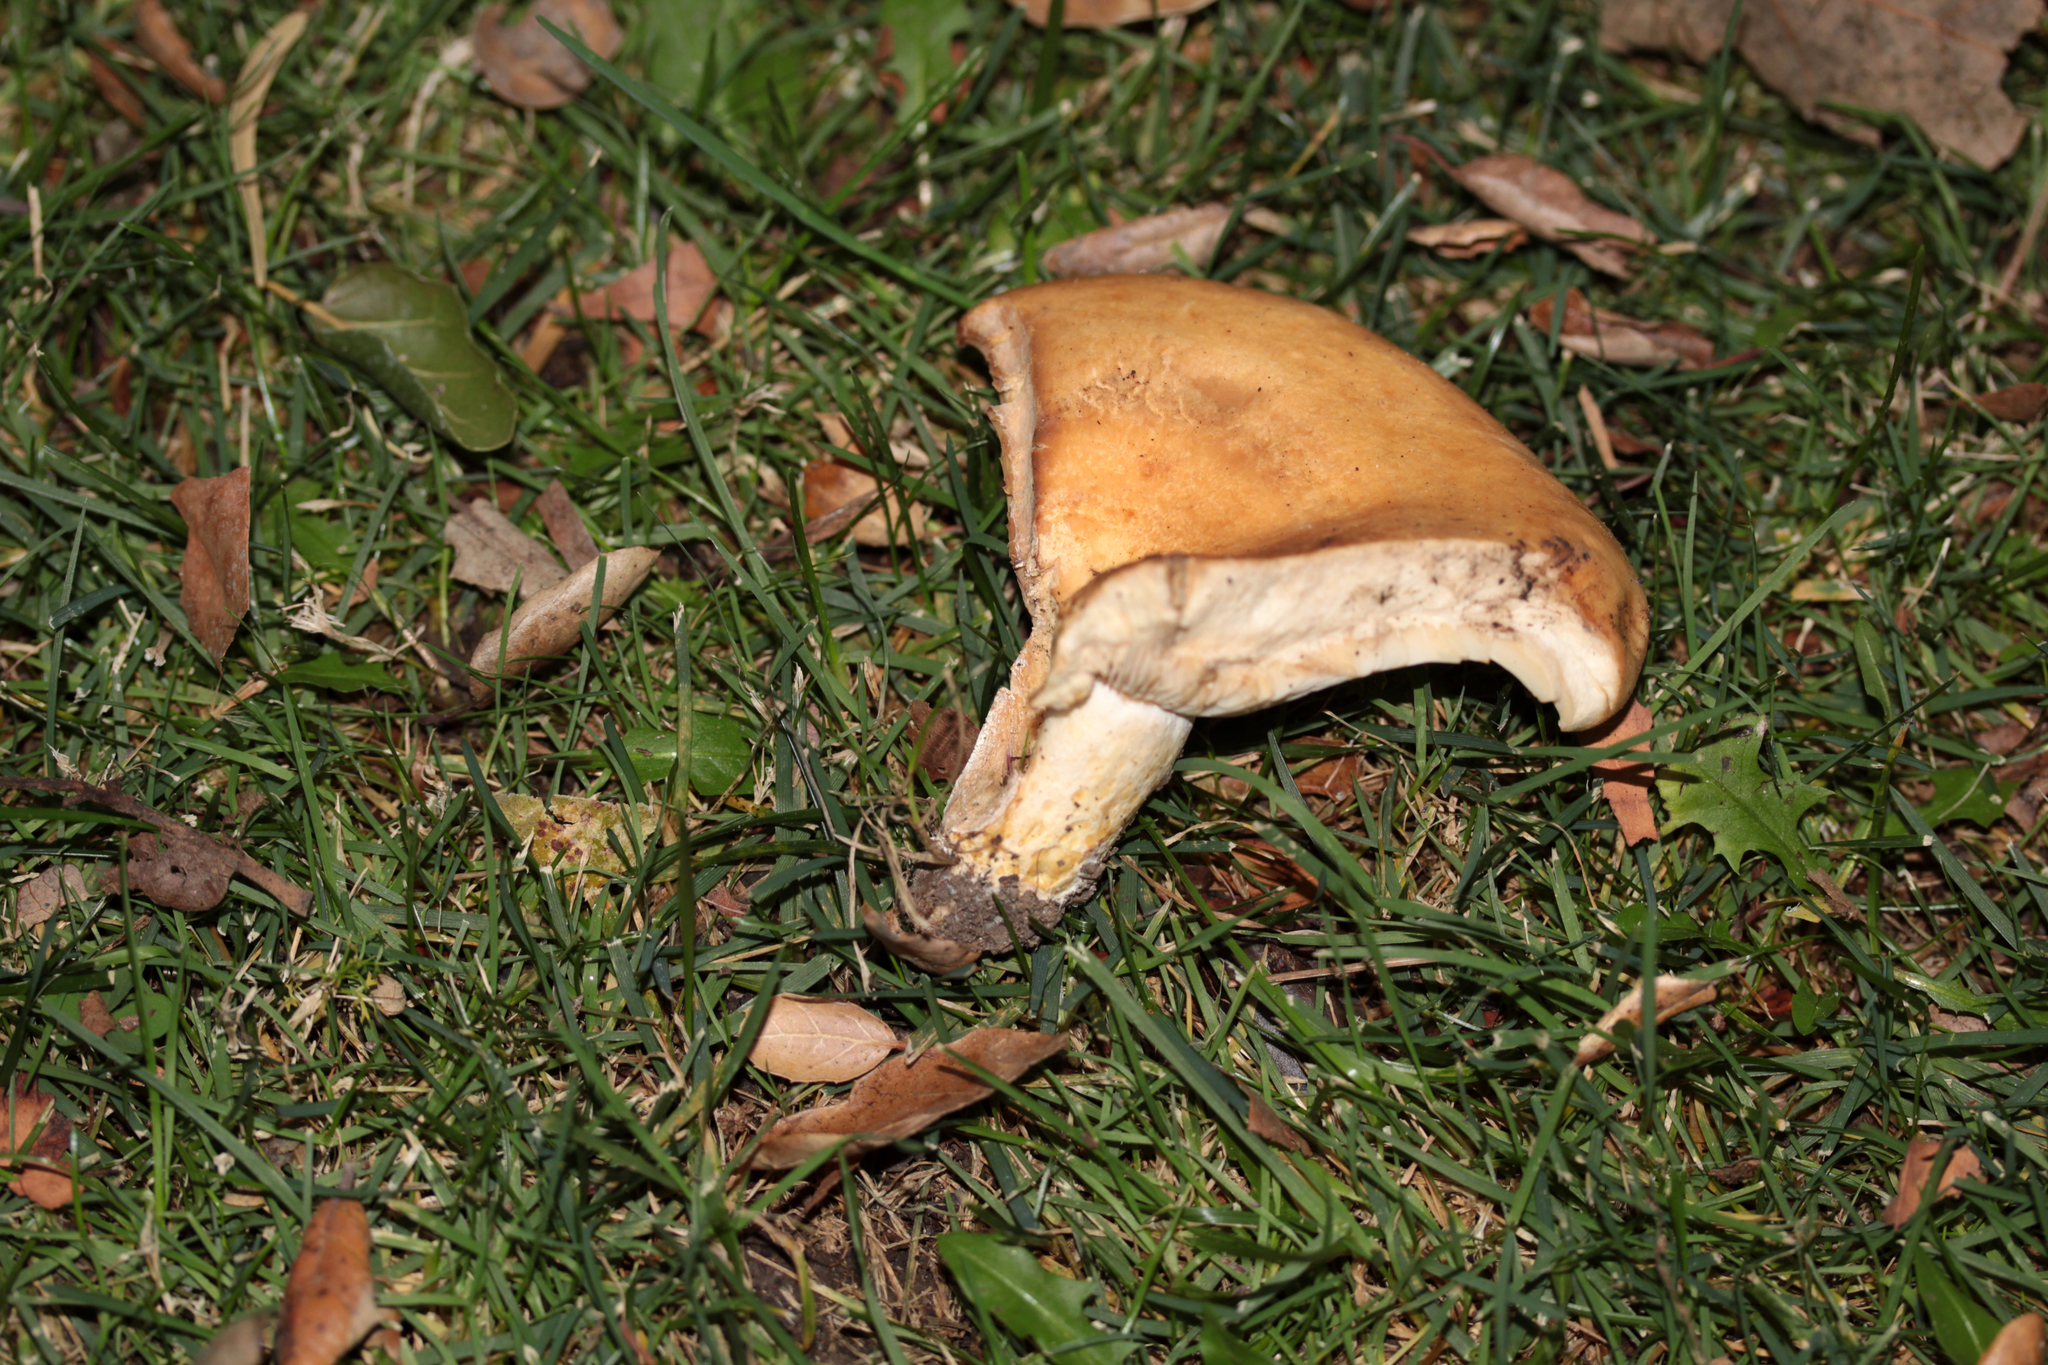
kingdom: Fungi
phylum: Basidiomycota
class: Agaricomycetes
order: Russulales
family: Russulaceae
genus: Lactarius
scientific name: Lactarius alnicola
